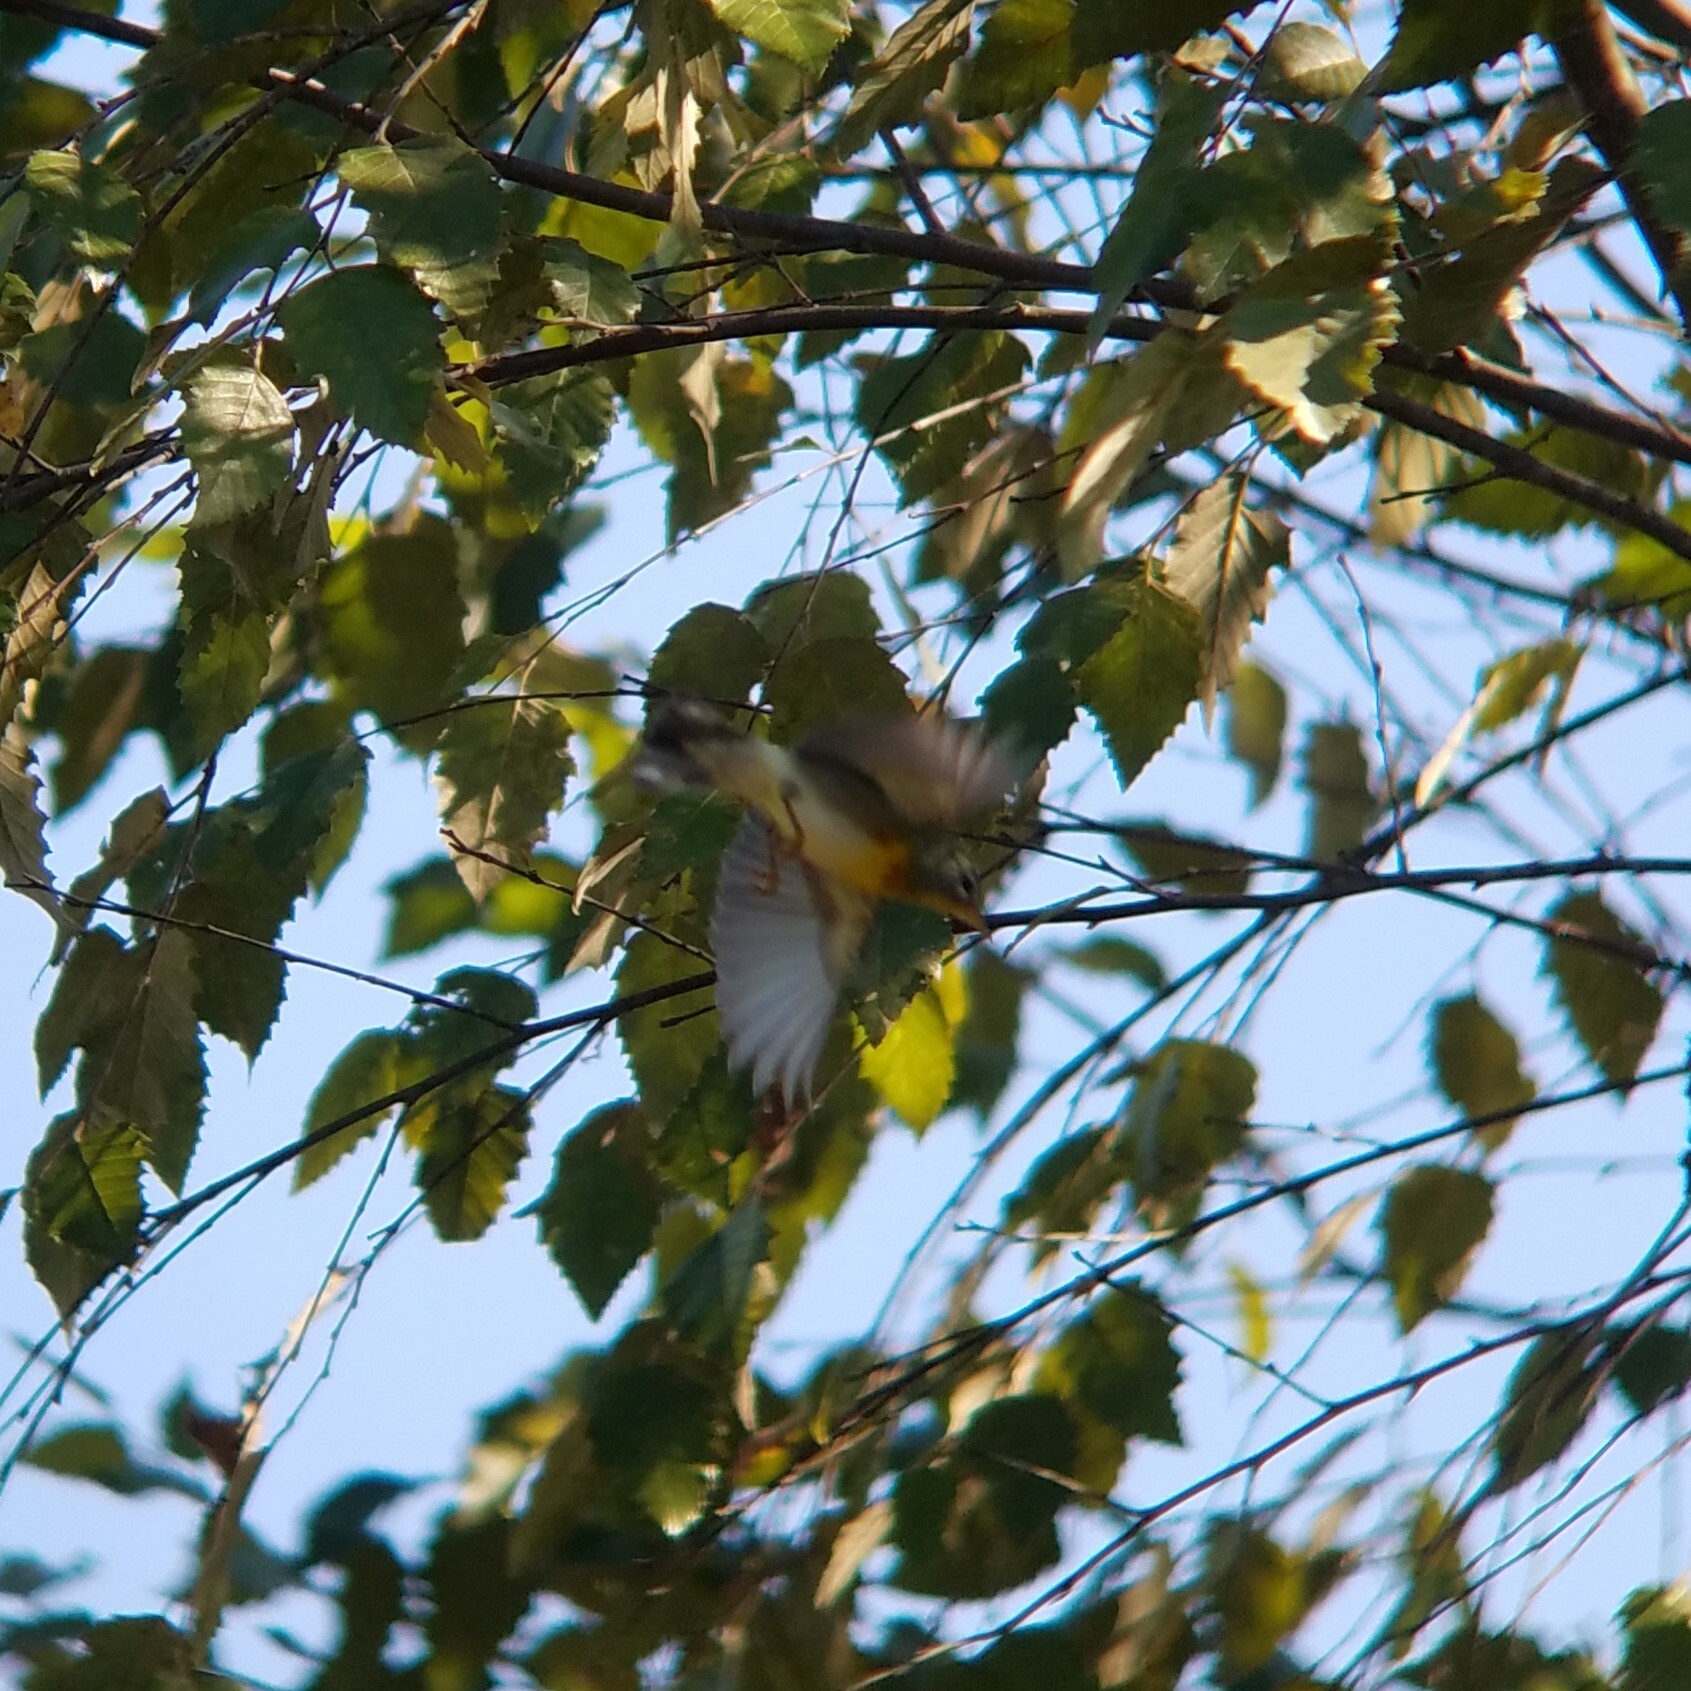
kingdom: Animalia
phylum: Chordata
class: Aves
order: Passeriformes
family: Parulidae
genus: Setophaga
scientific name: Setophaga americana
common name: Northern parula
